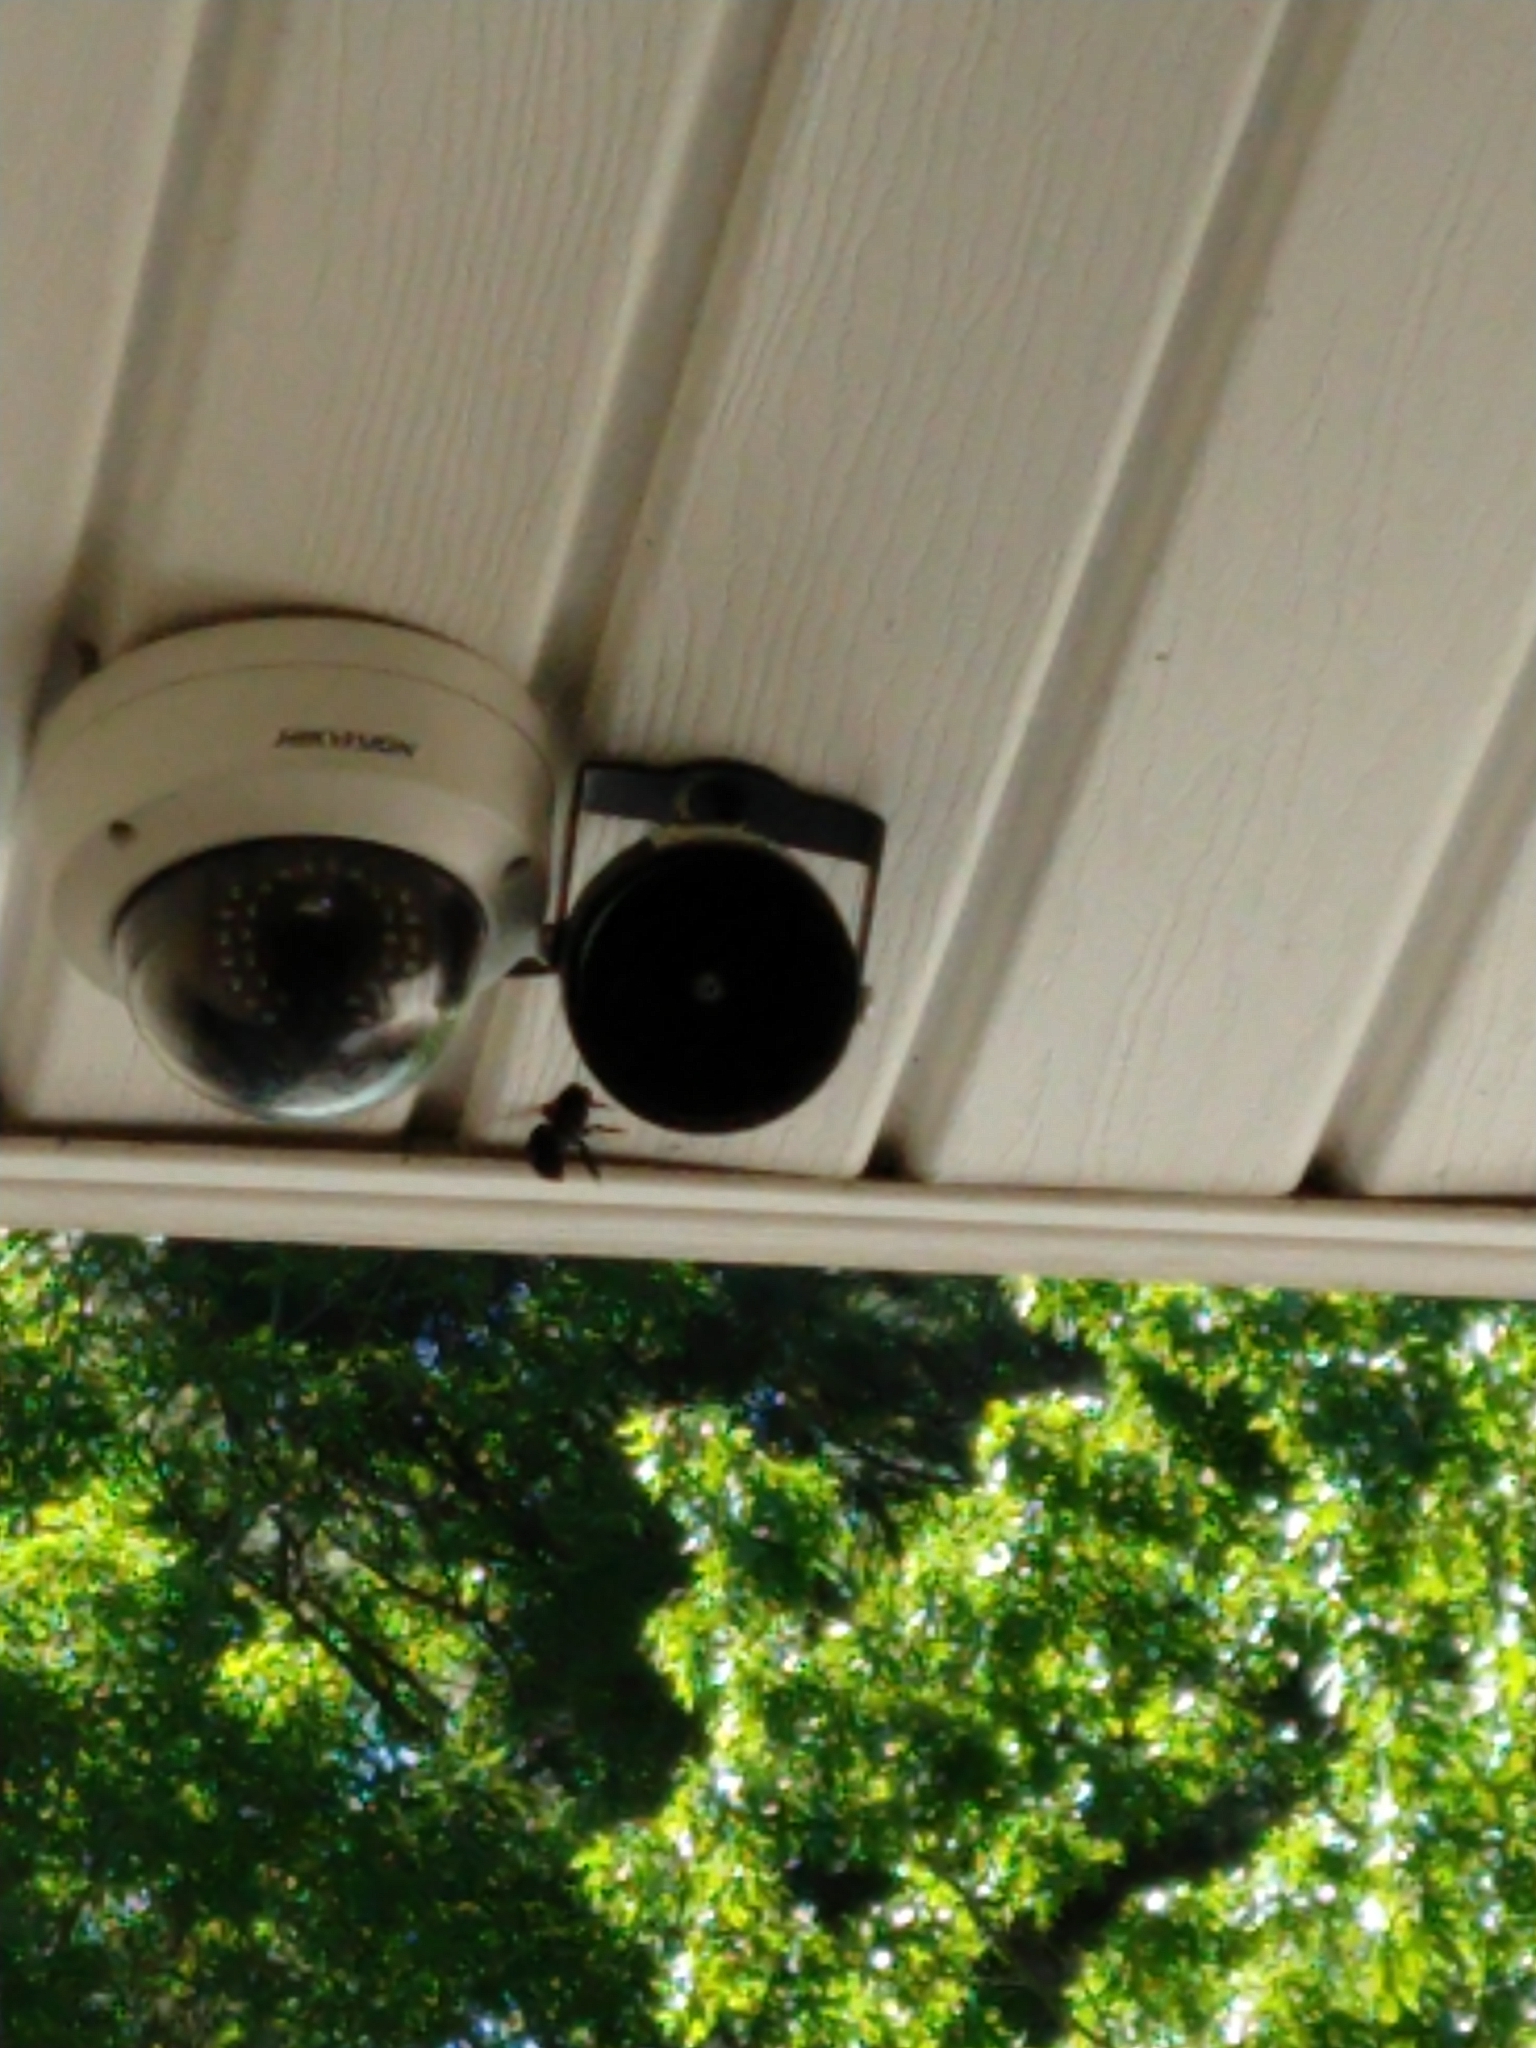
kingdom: Animalia
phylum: Arthropoda
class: Insecta
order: Hymenoptera
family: Apidae
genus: Xylocopa
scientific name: Xylocopa micans
